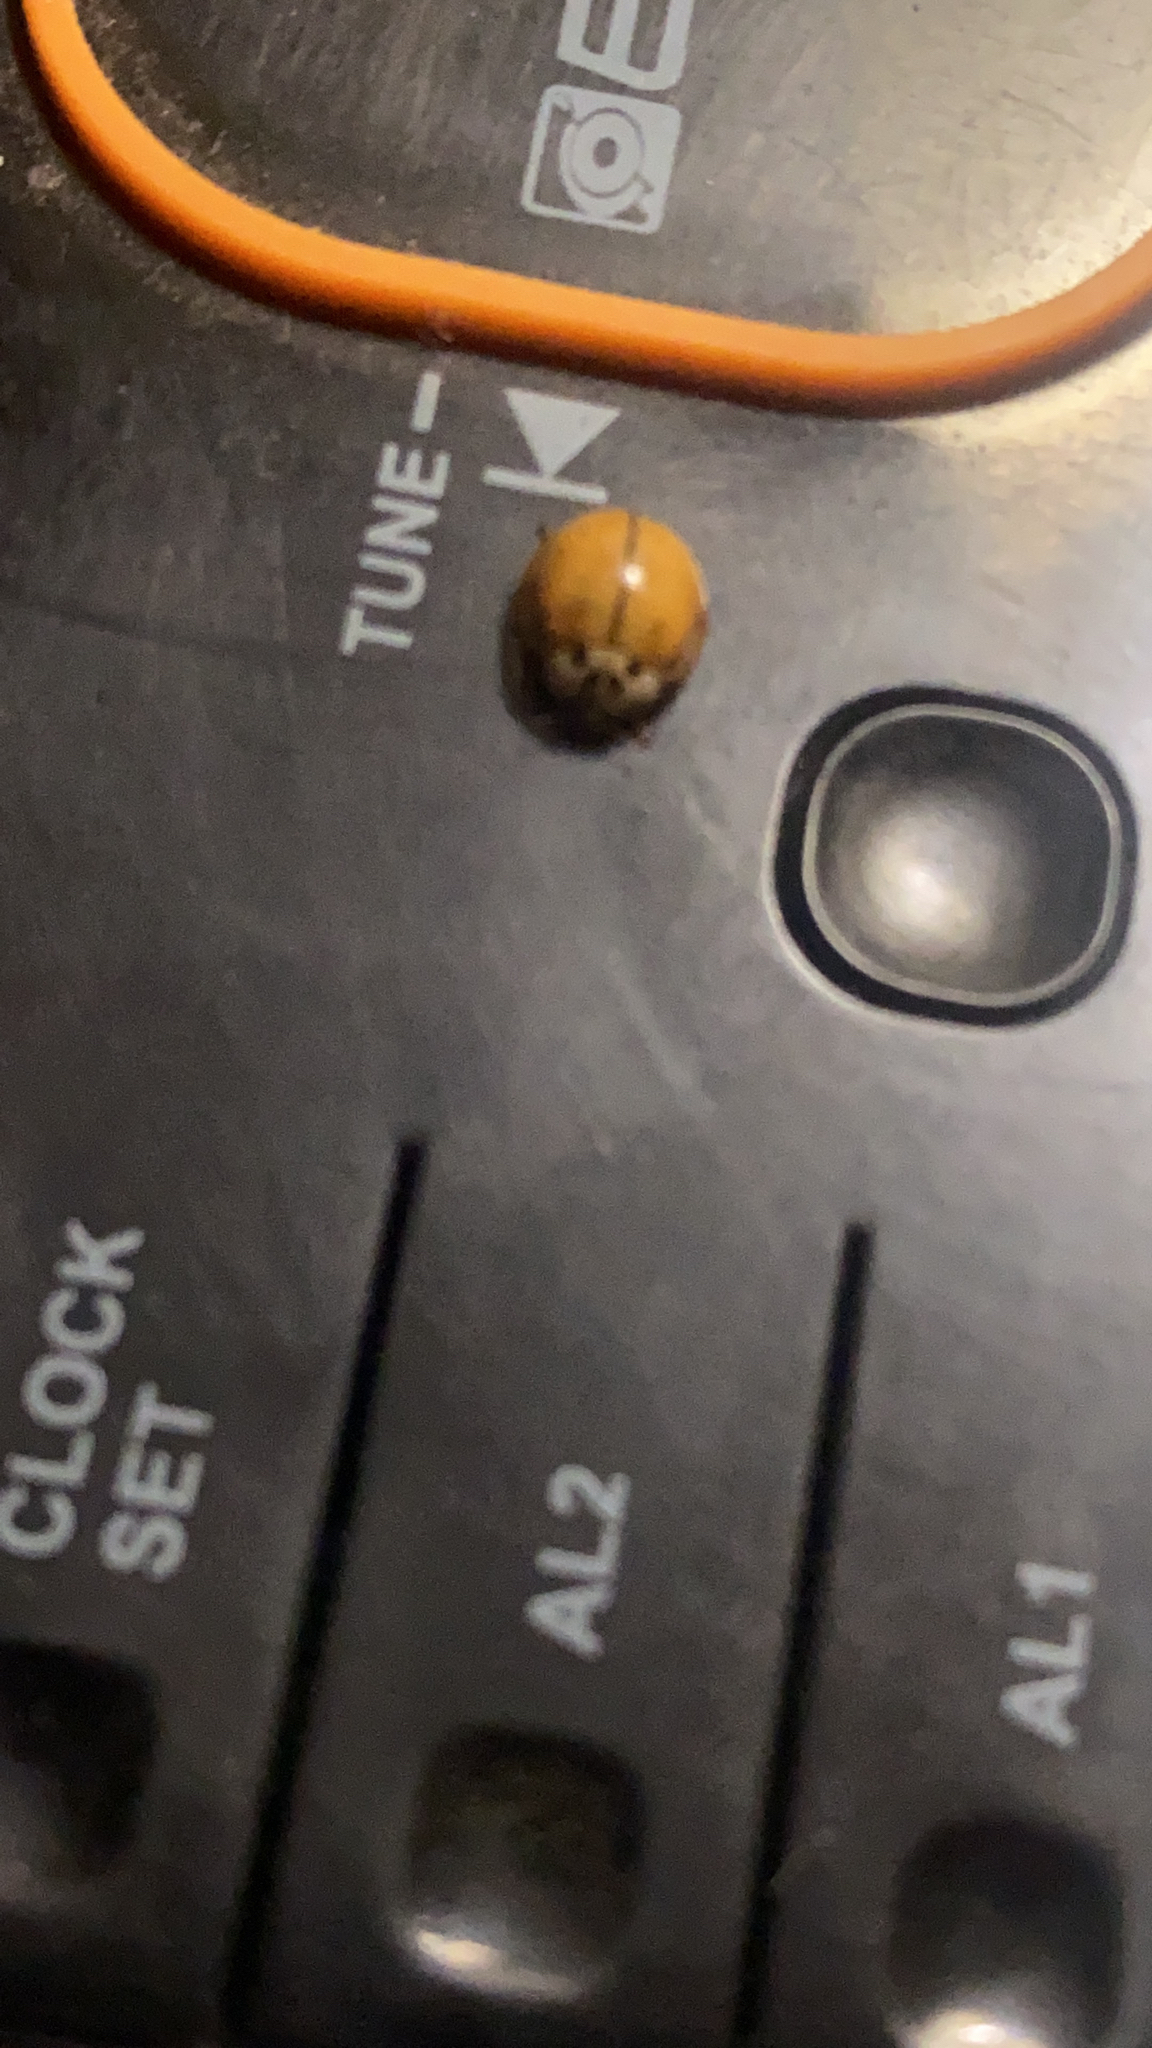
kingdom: Animalia
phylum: Arthropoda
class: Insecta
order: Coleoptera
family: Coccinellidae
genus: Harmonia
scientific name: Harmonia axyridis
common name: Harlequin ladybird
